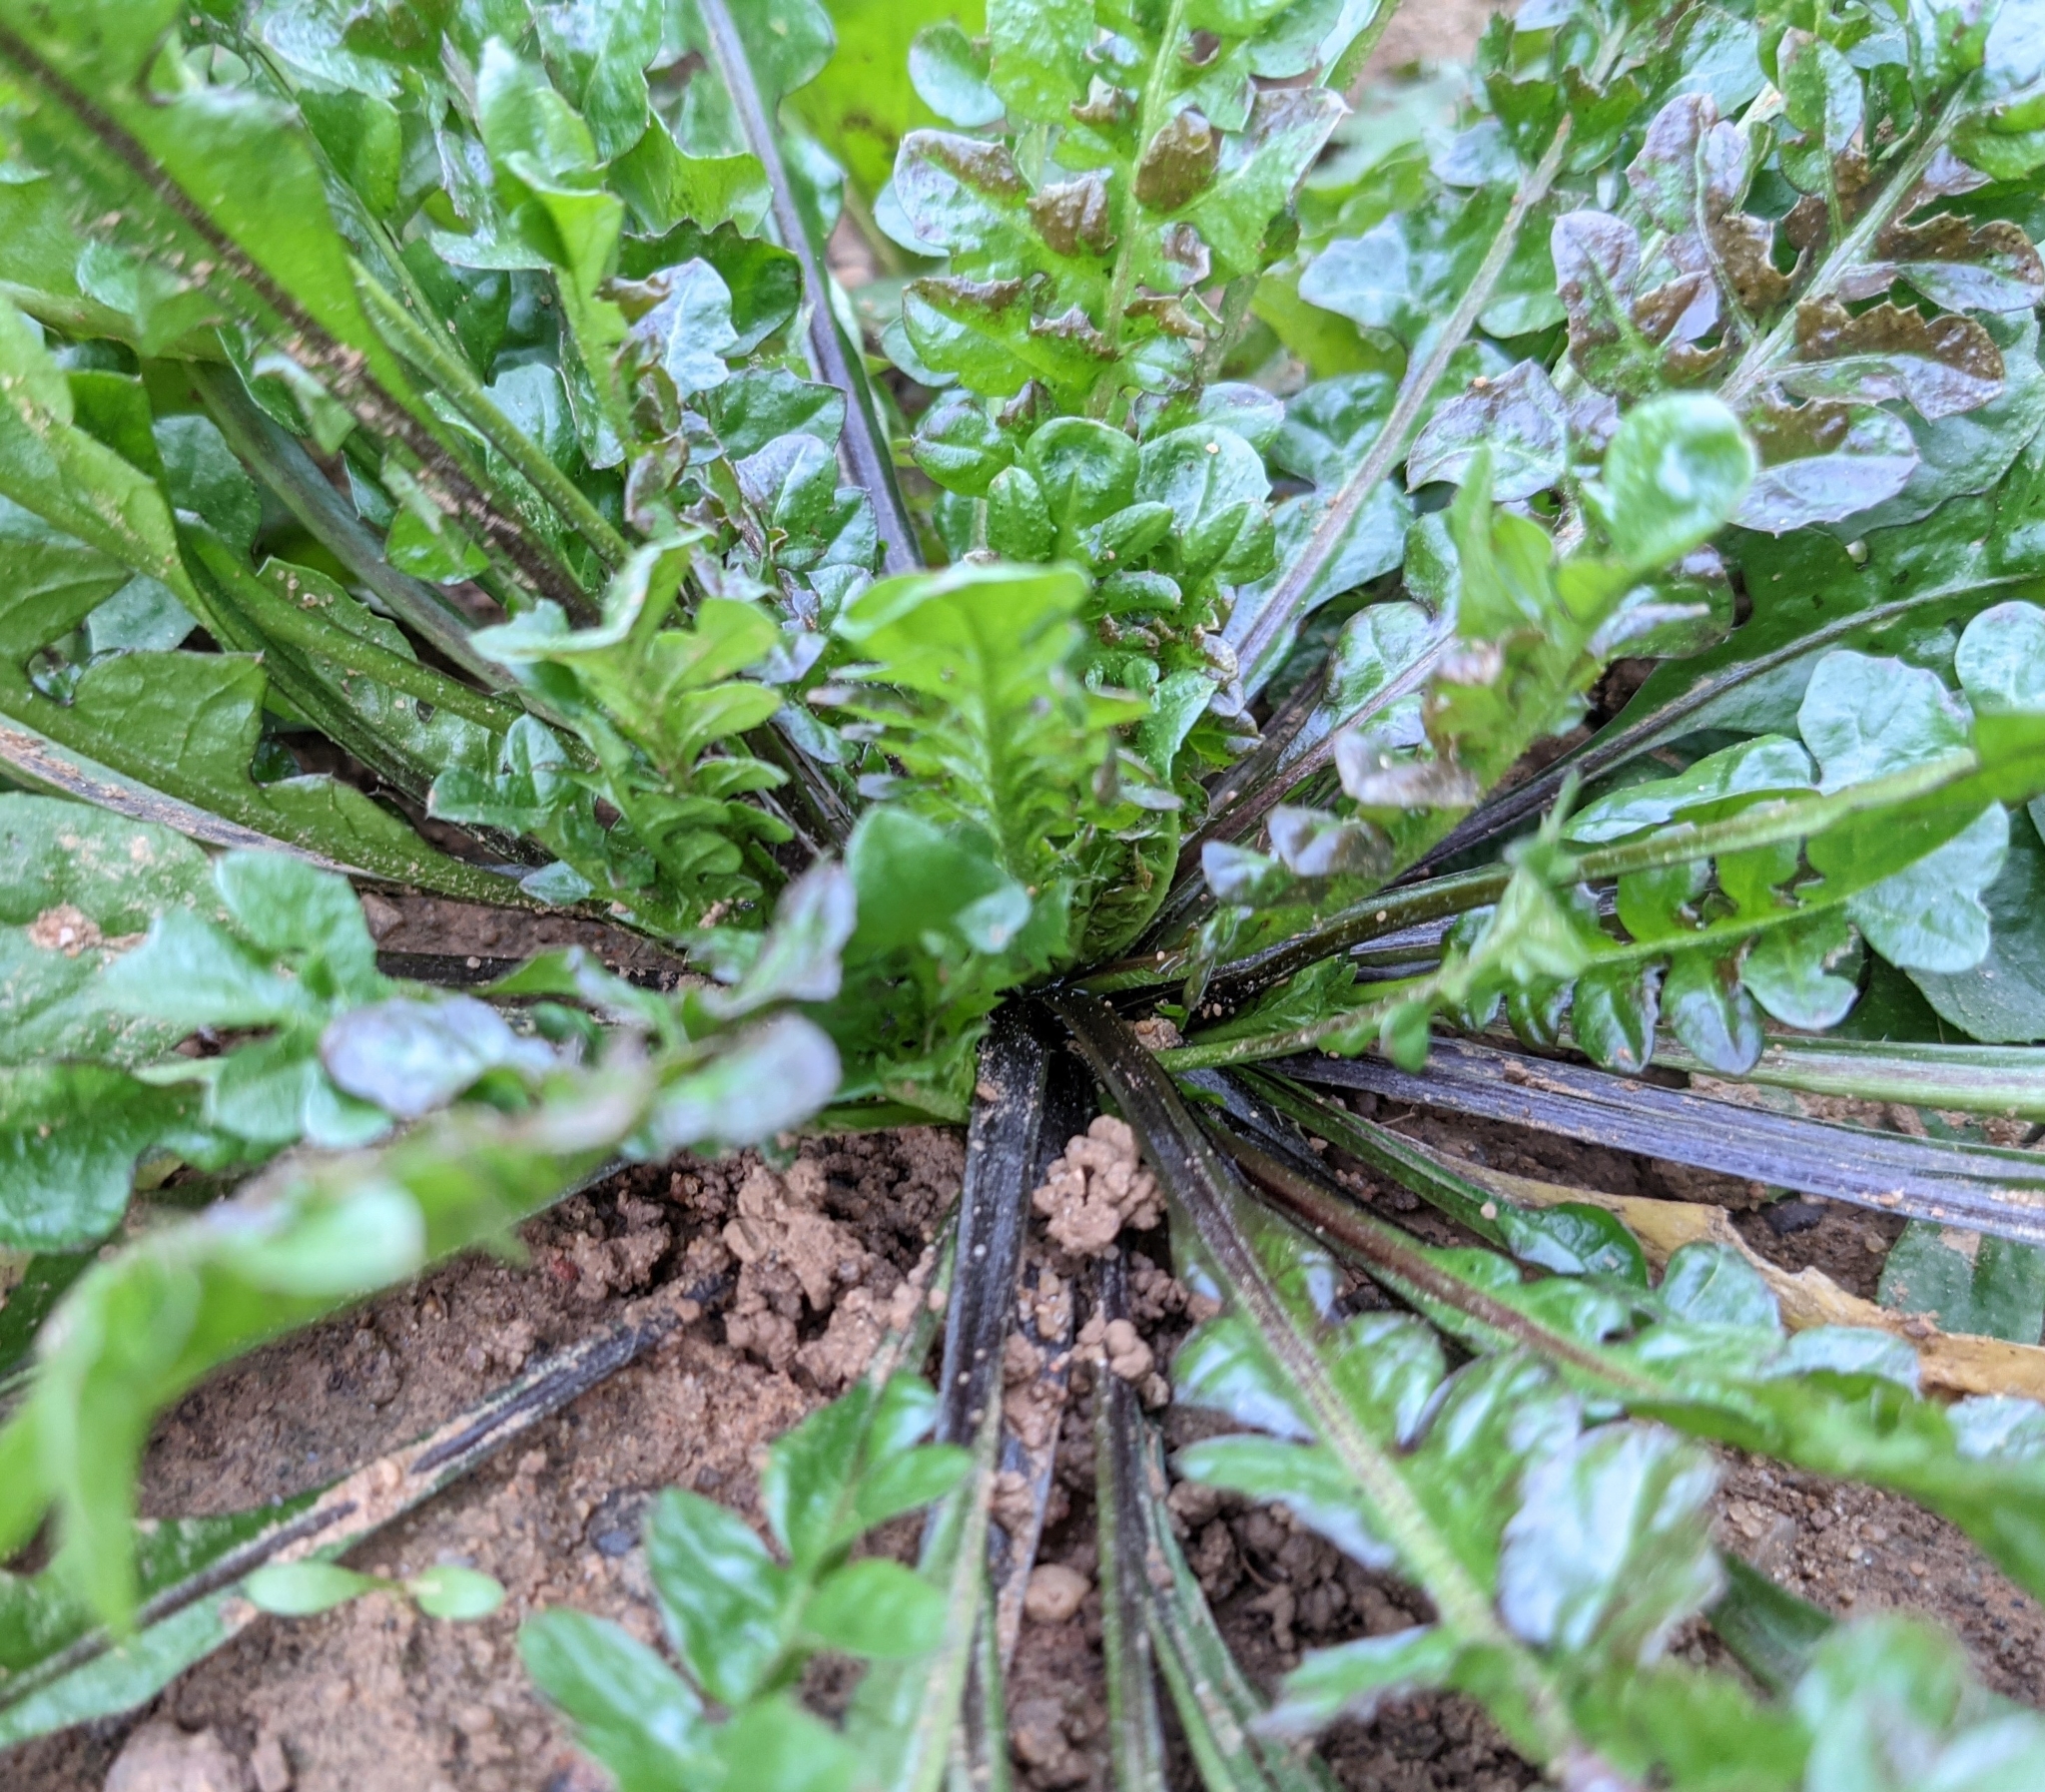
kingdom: Plantae
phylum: Tracheophyta
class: Magnoliopsida
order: Brassicales
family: Brassicaceae
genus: Capsella
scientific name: Capsella bursa-pastoris
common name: Shepherd's purse
